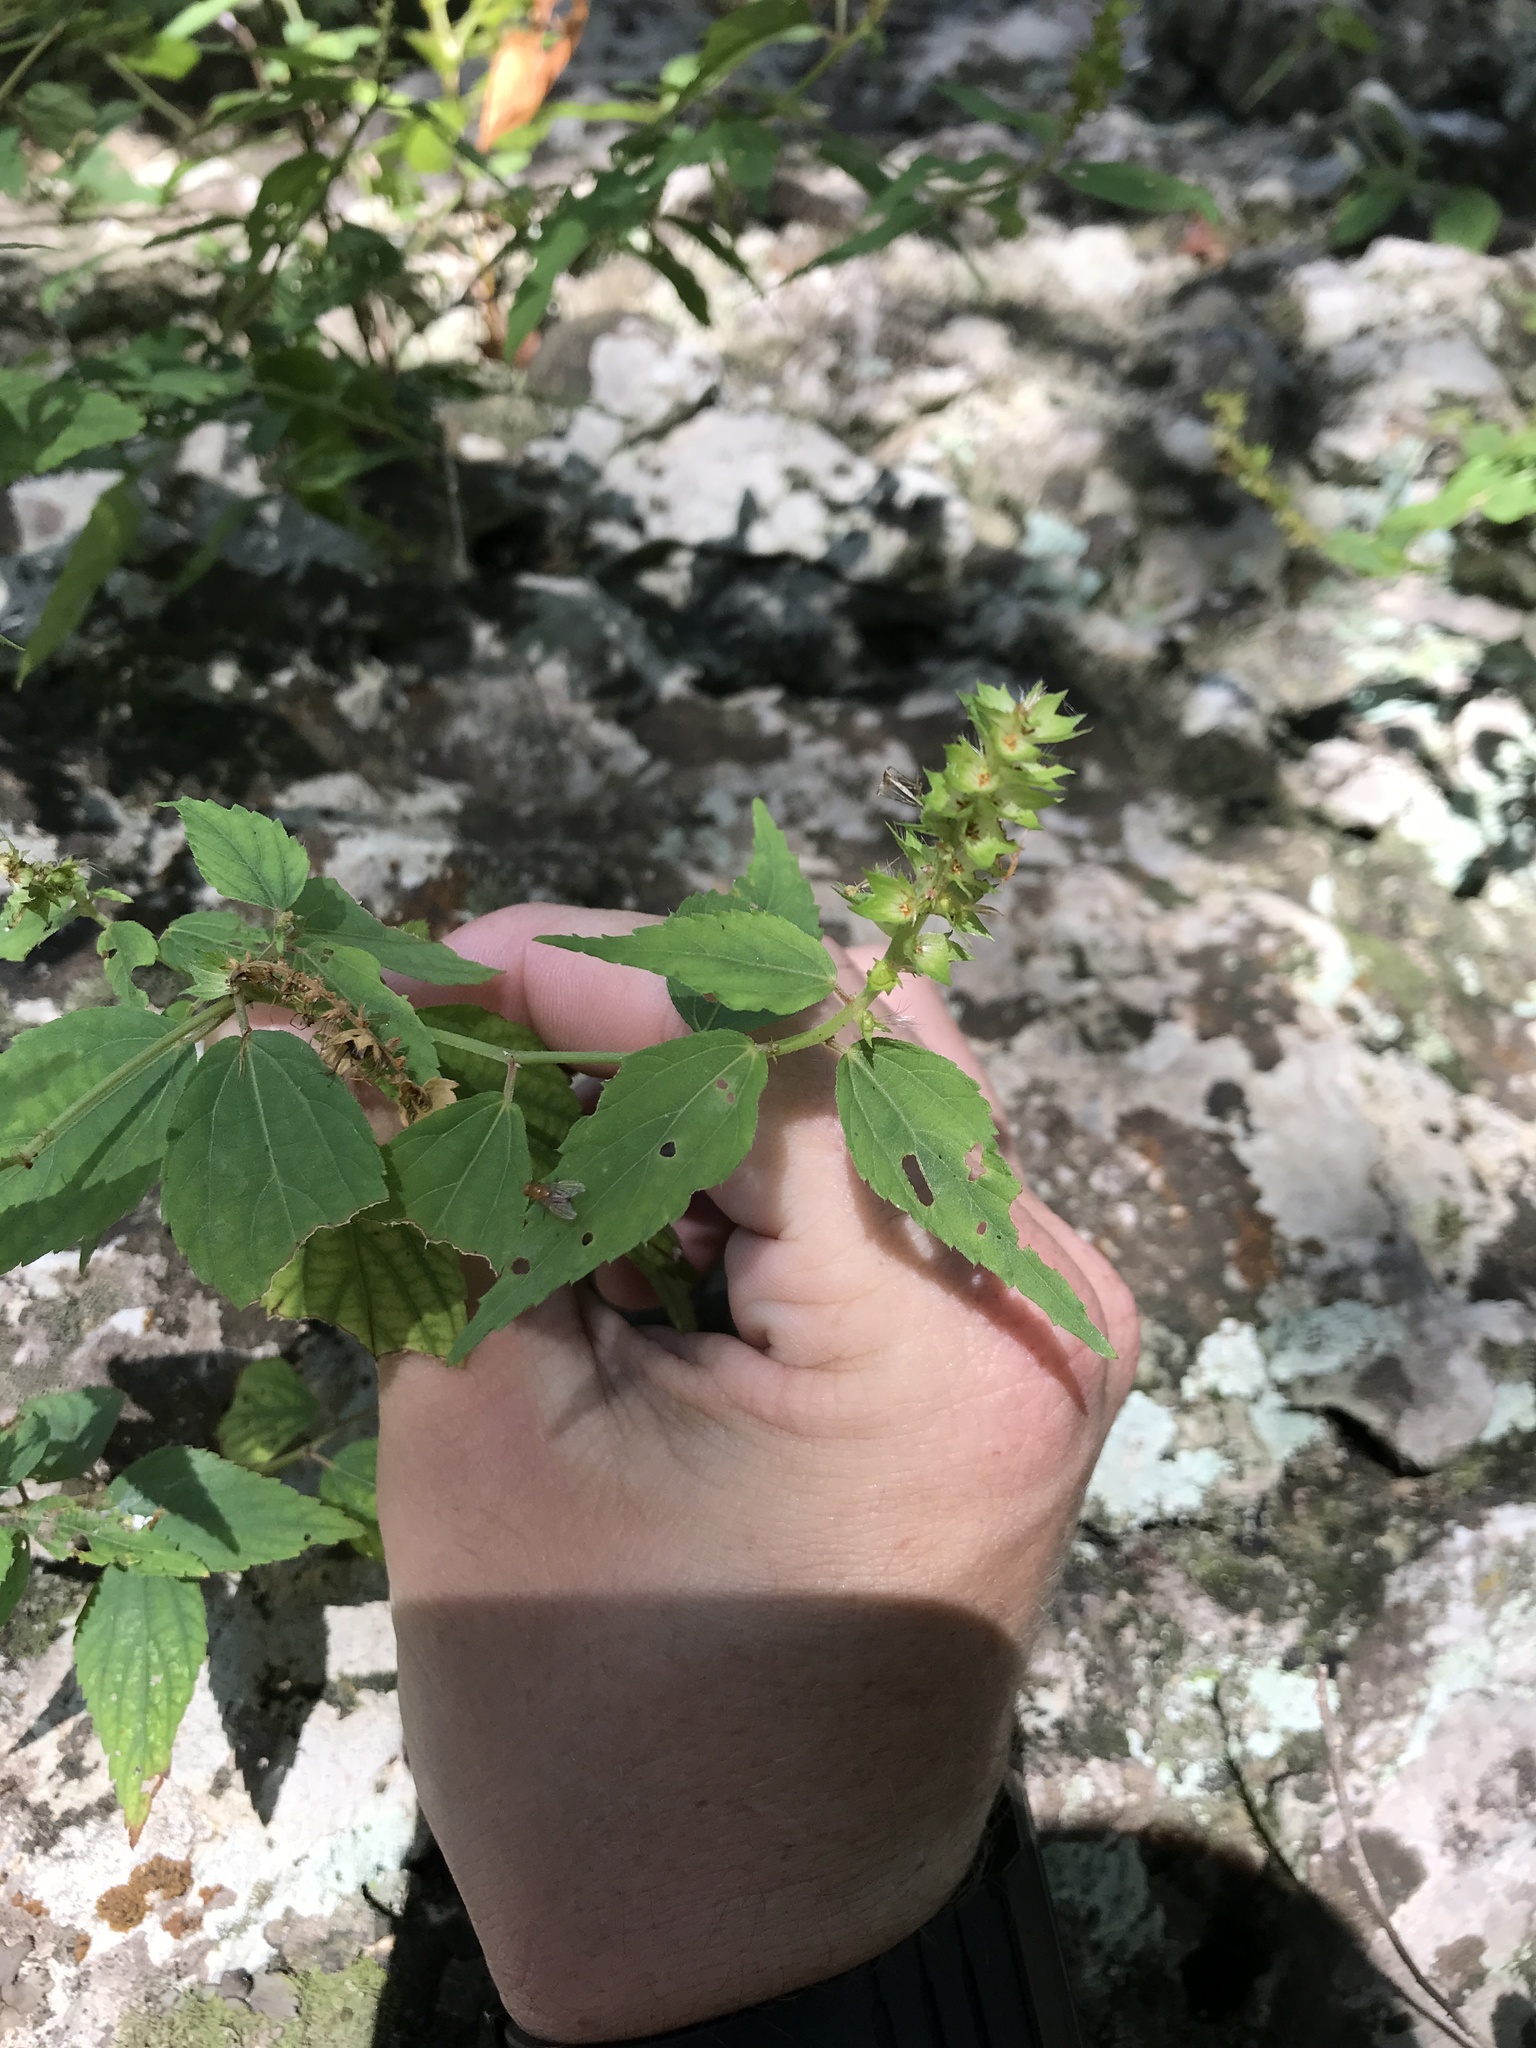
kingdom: Plantae
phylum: Tracheophyta
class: Magnoliopsida
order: Malpighiales
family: Euphorbiaceae
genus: Acalypha
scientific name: Acalypha phleoides
